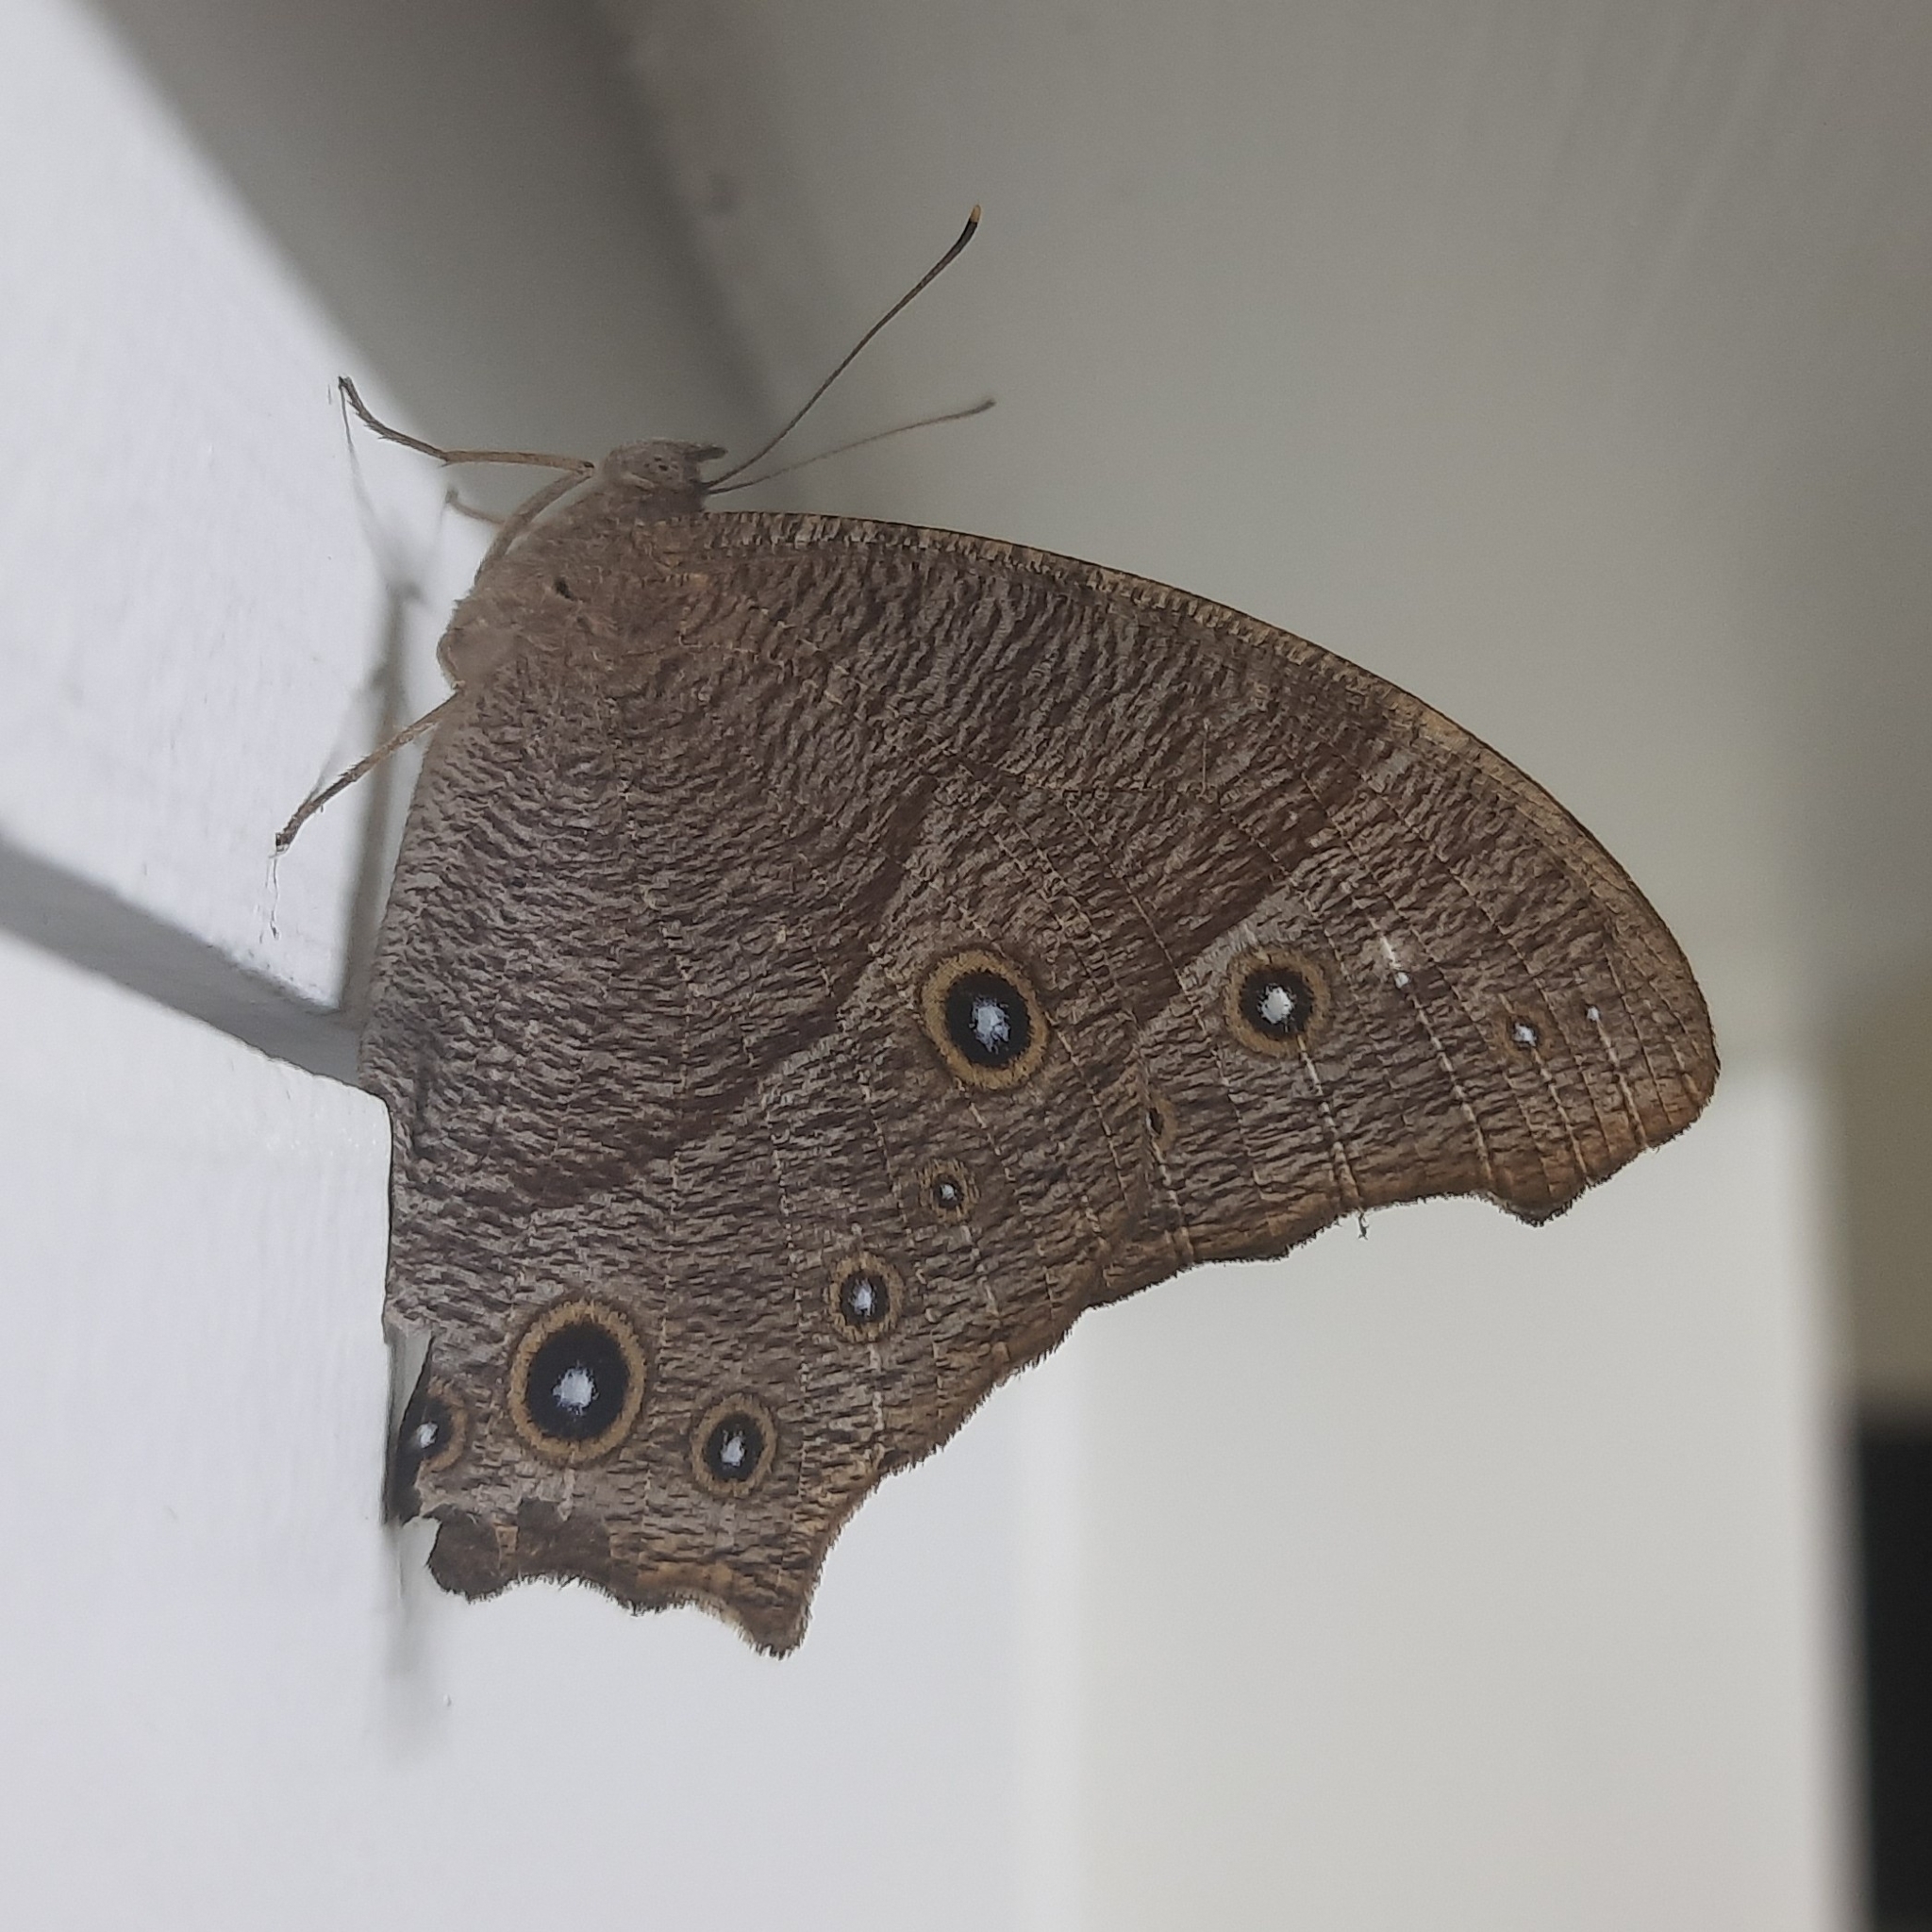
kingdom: Animalia
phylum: Arthropoda
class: Insecta
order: Lepidoptera
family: Nymphalidae
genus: Melanitis
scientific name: Melanitis leda
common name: Twilight brown
